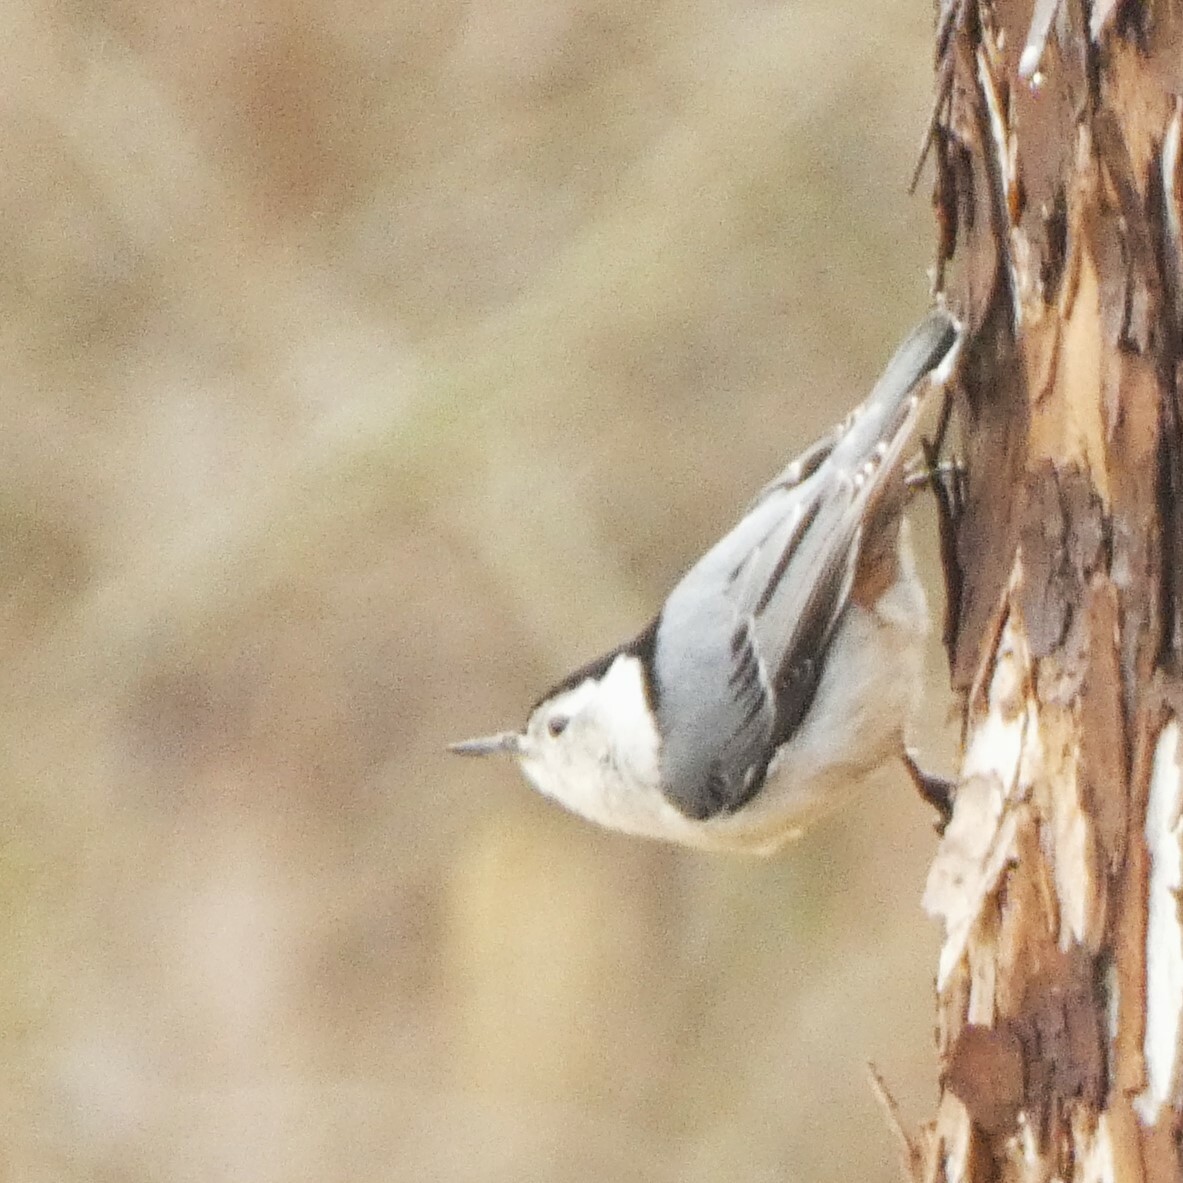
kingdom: Animalia
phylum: Chordata
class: Aves
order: Passeriformes
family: Sittidae
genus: Sitta
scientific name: Sitta carolinensis
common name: White-breasted nuthatch
